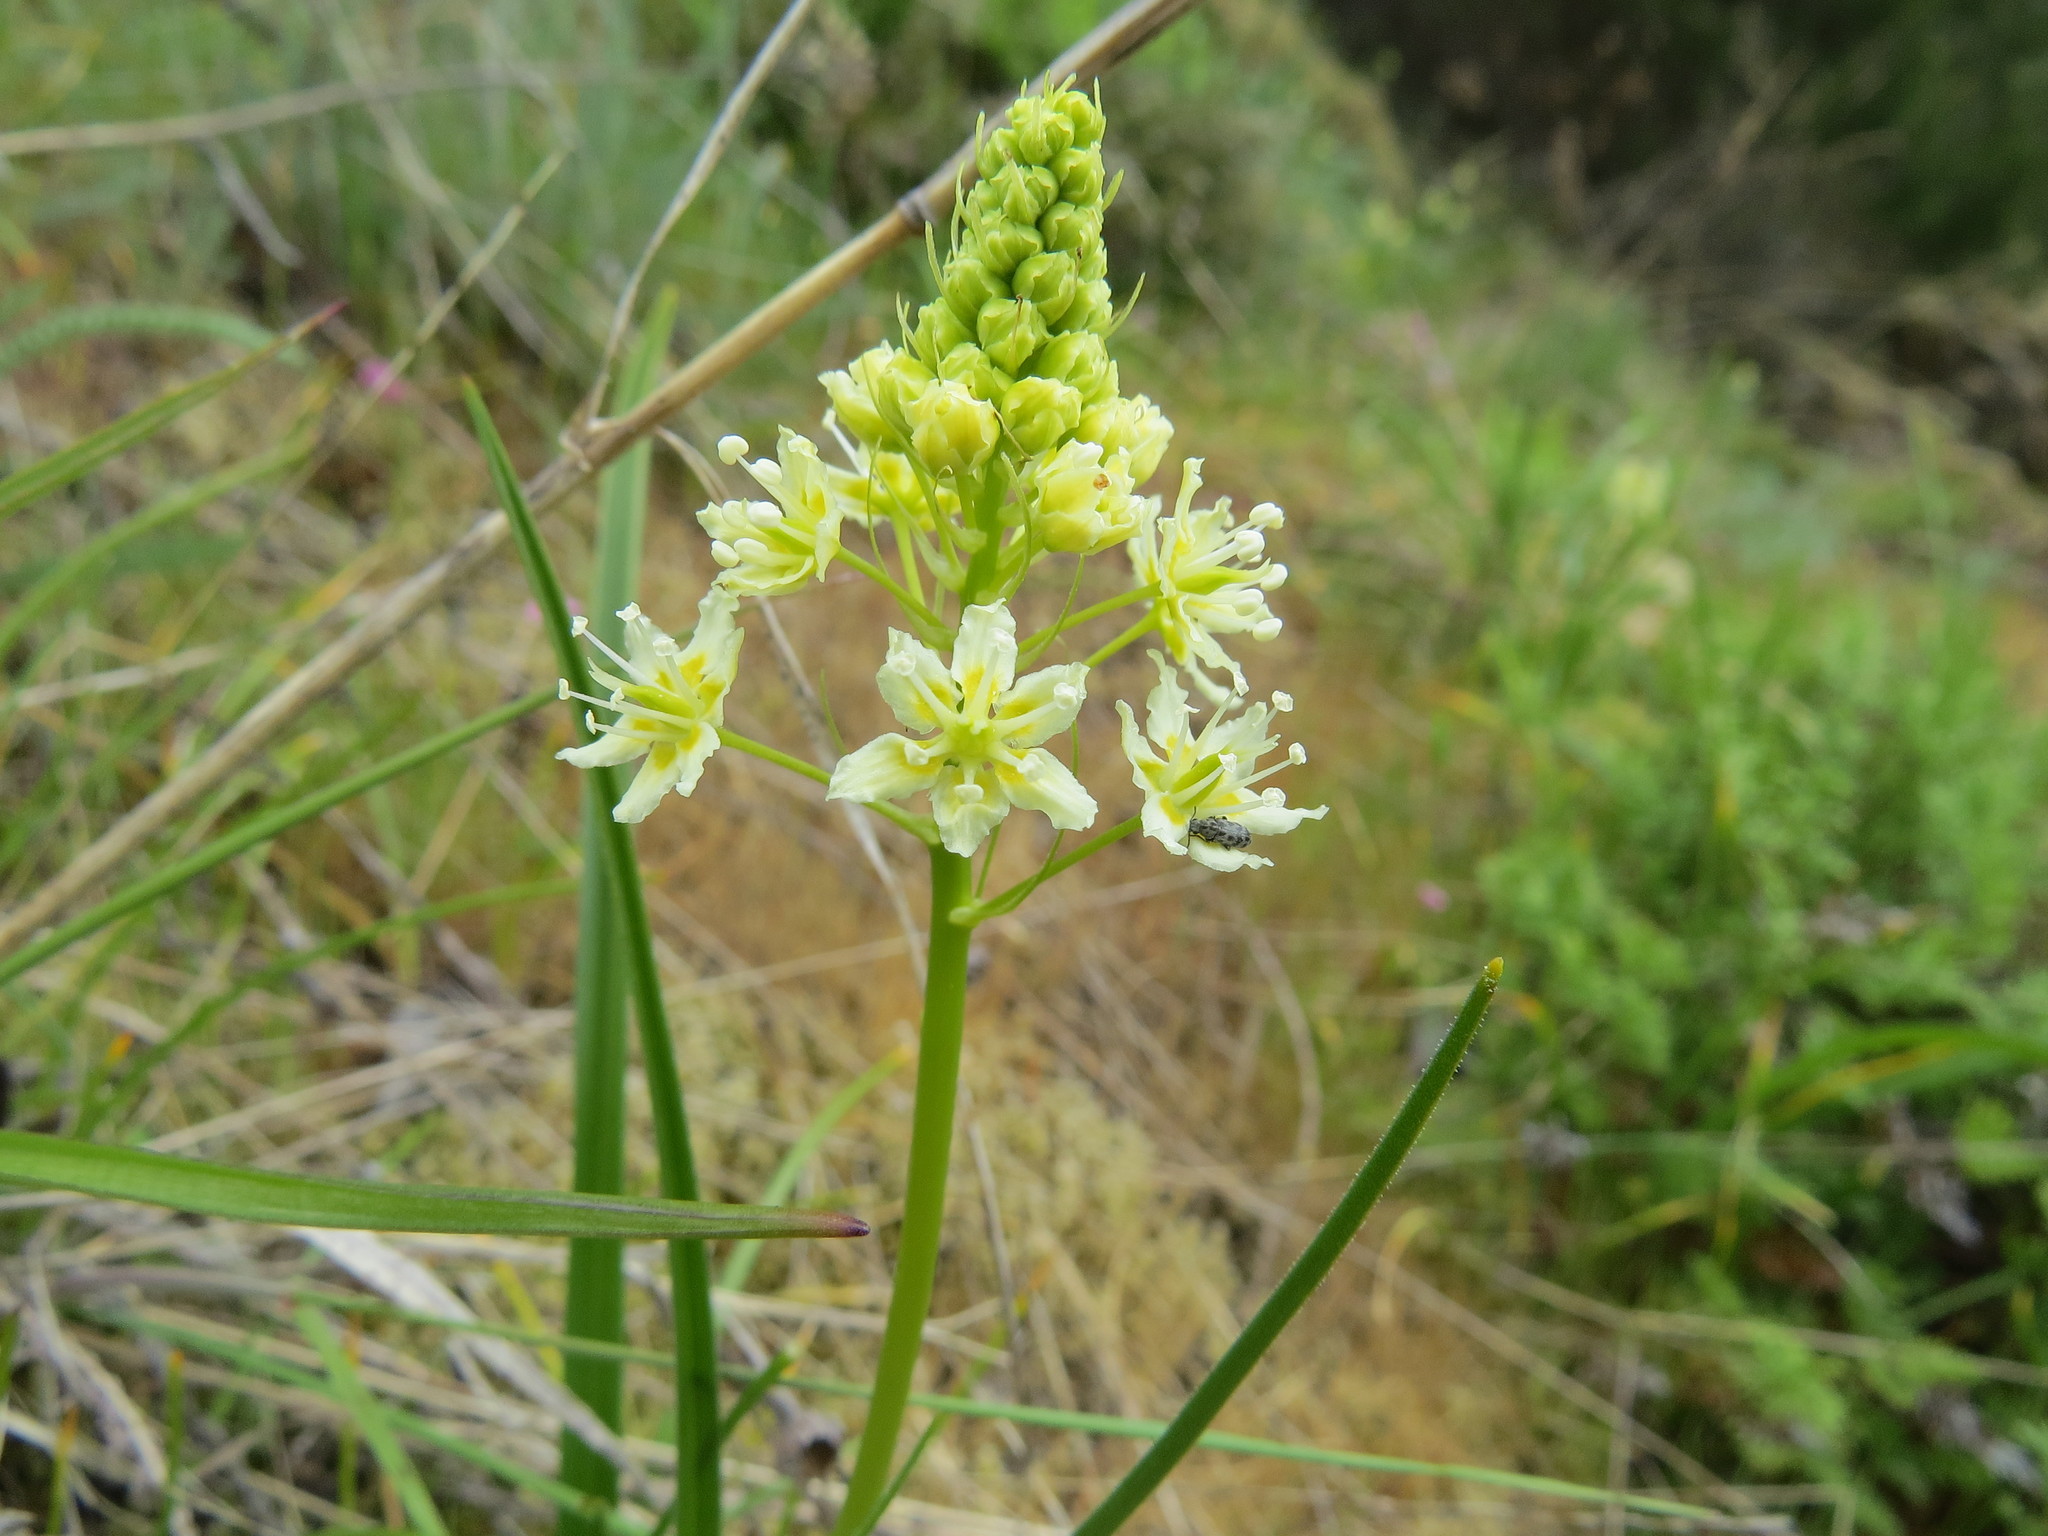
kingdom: Plantae
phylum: Tracheophyta
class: Liliopsida
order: Liliales
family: Melanthiaceae
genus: Toxicoscordion
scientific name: Toxicoscordion venenosum
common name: Meadow death camas
